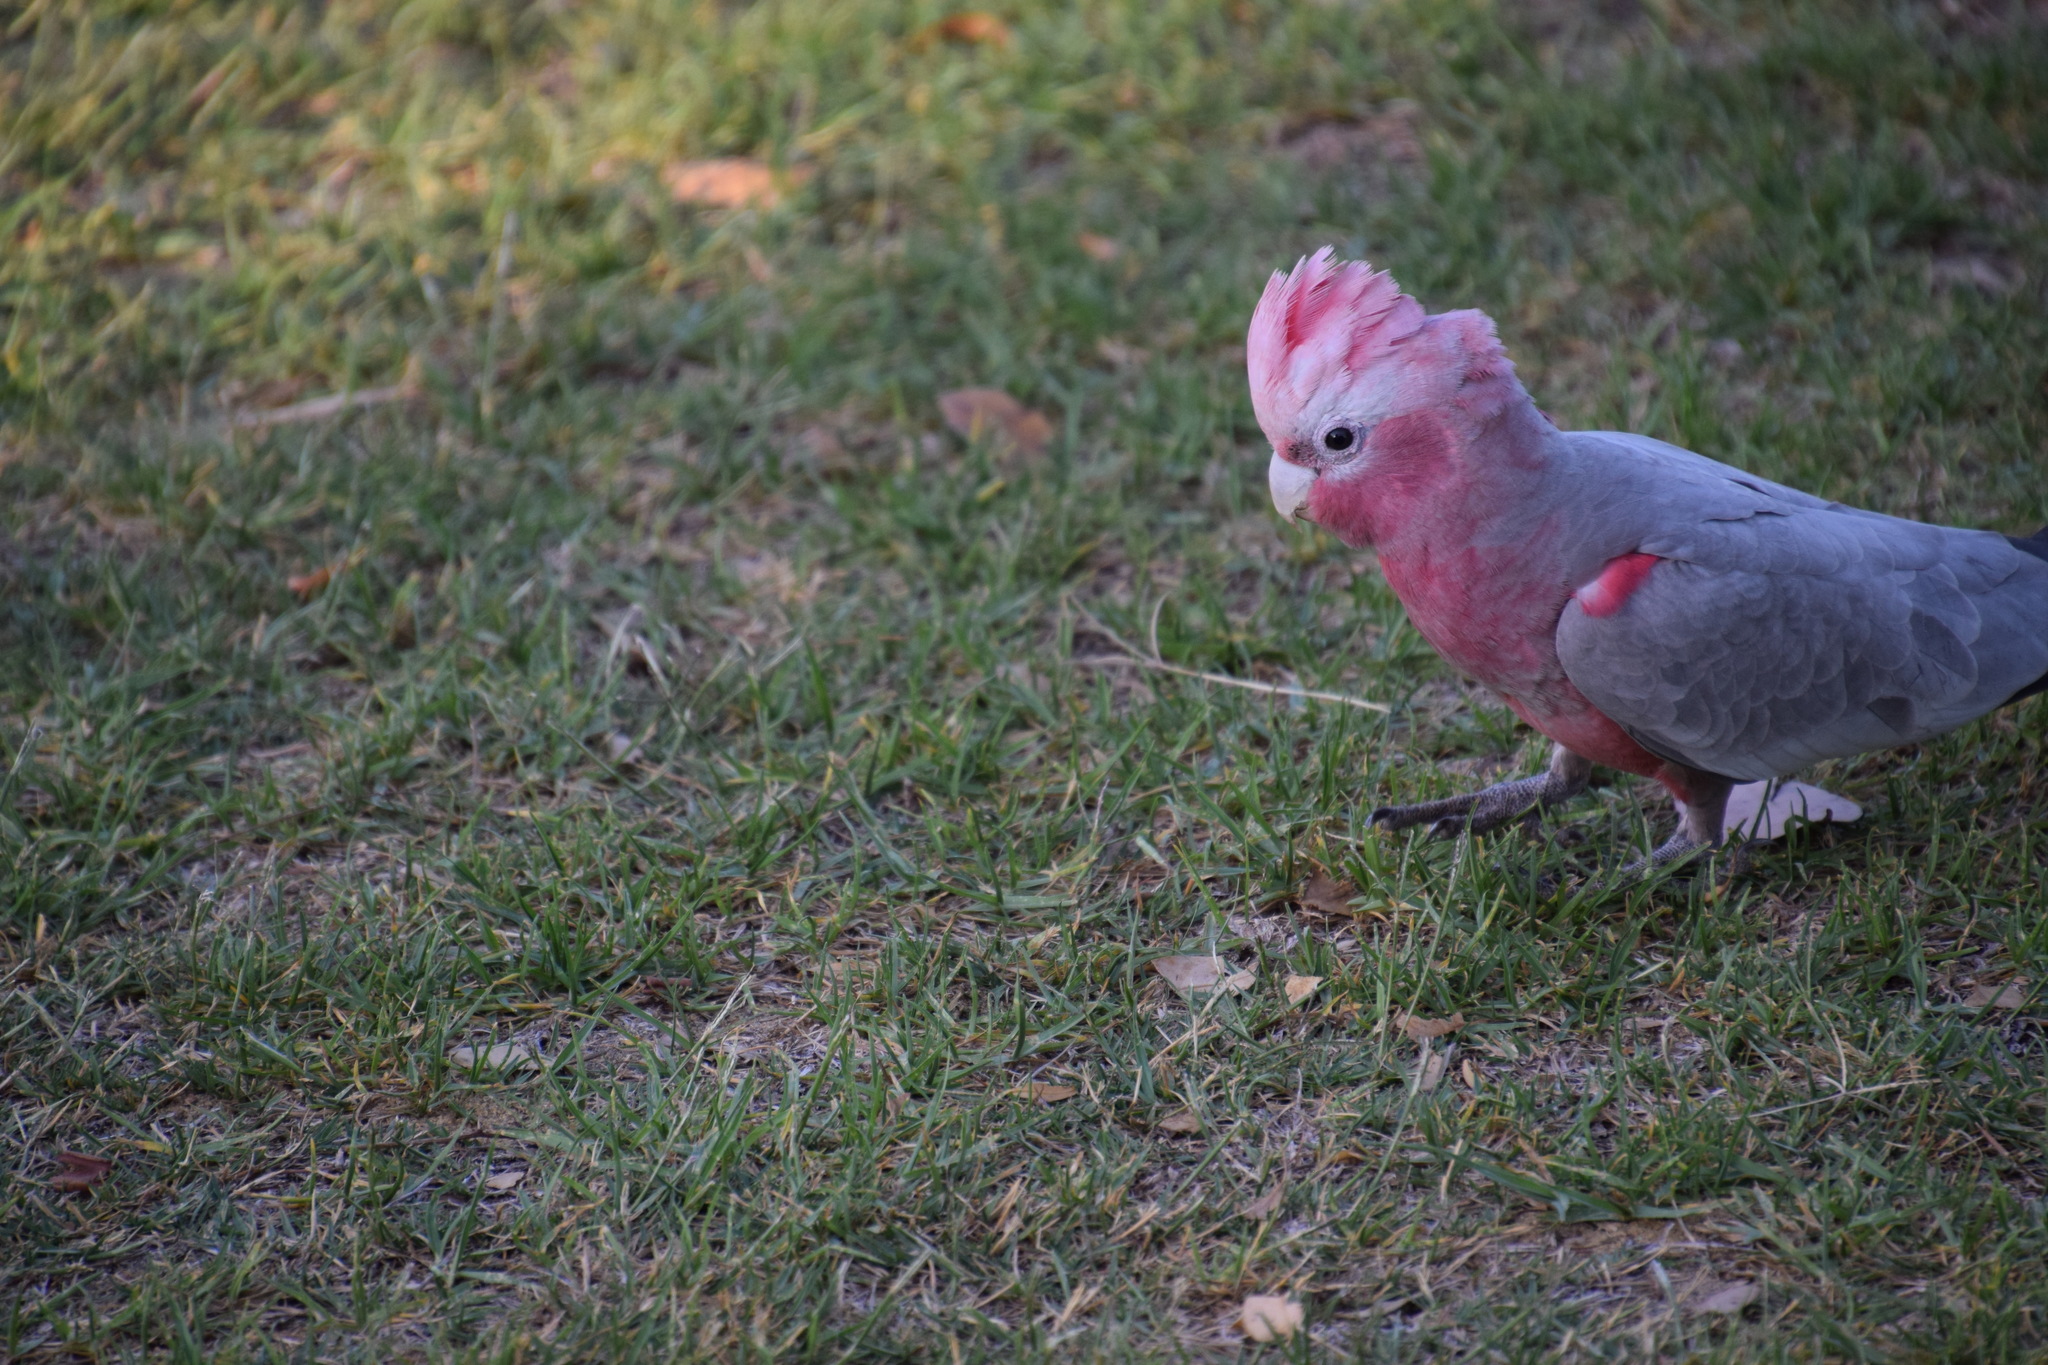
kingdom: Animalia
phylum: Chordata
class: Aves
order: Psittaciformes
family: Psittacidae
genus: Eolophus
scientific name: Eolophus roseicapilla
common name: Galah
